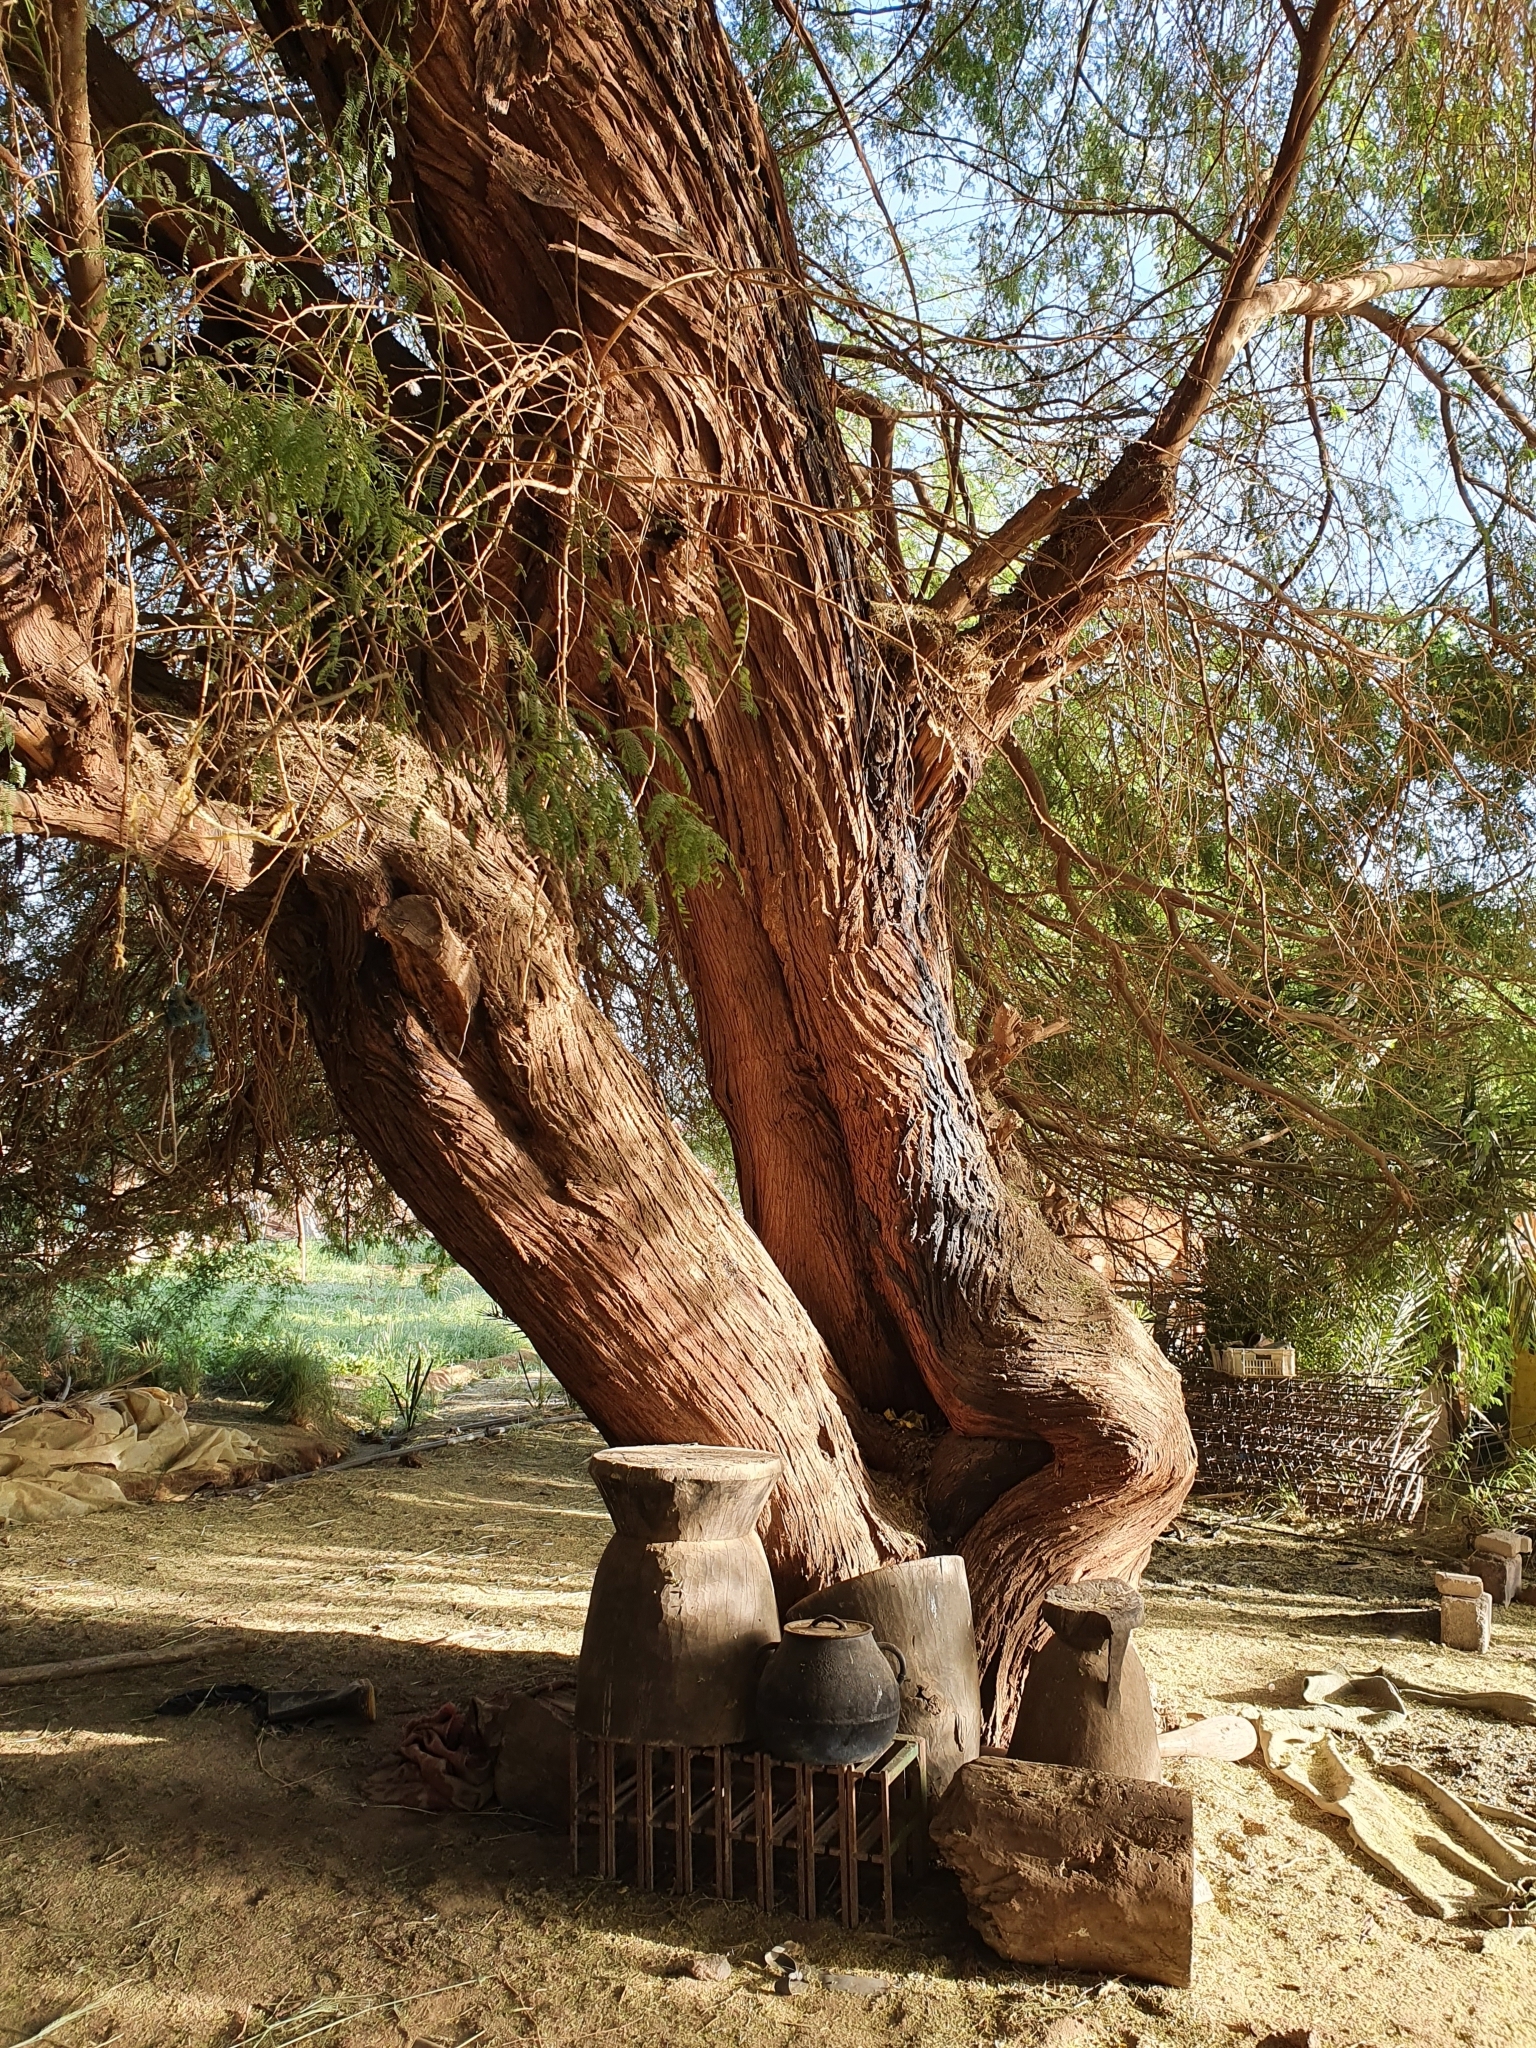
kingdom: Plantae
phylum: Tracheophyta
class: Magnoliopsida
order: Fabales
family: Fabaceae
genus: Prosopis
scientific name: Prosopis africana
